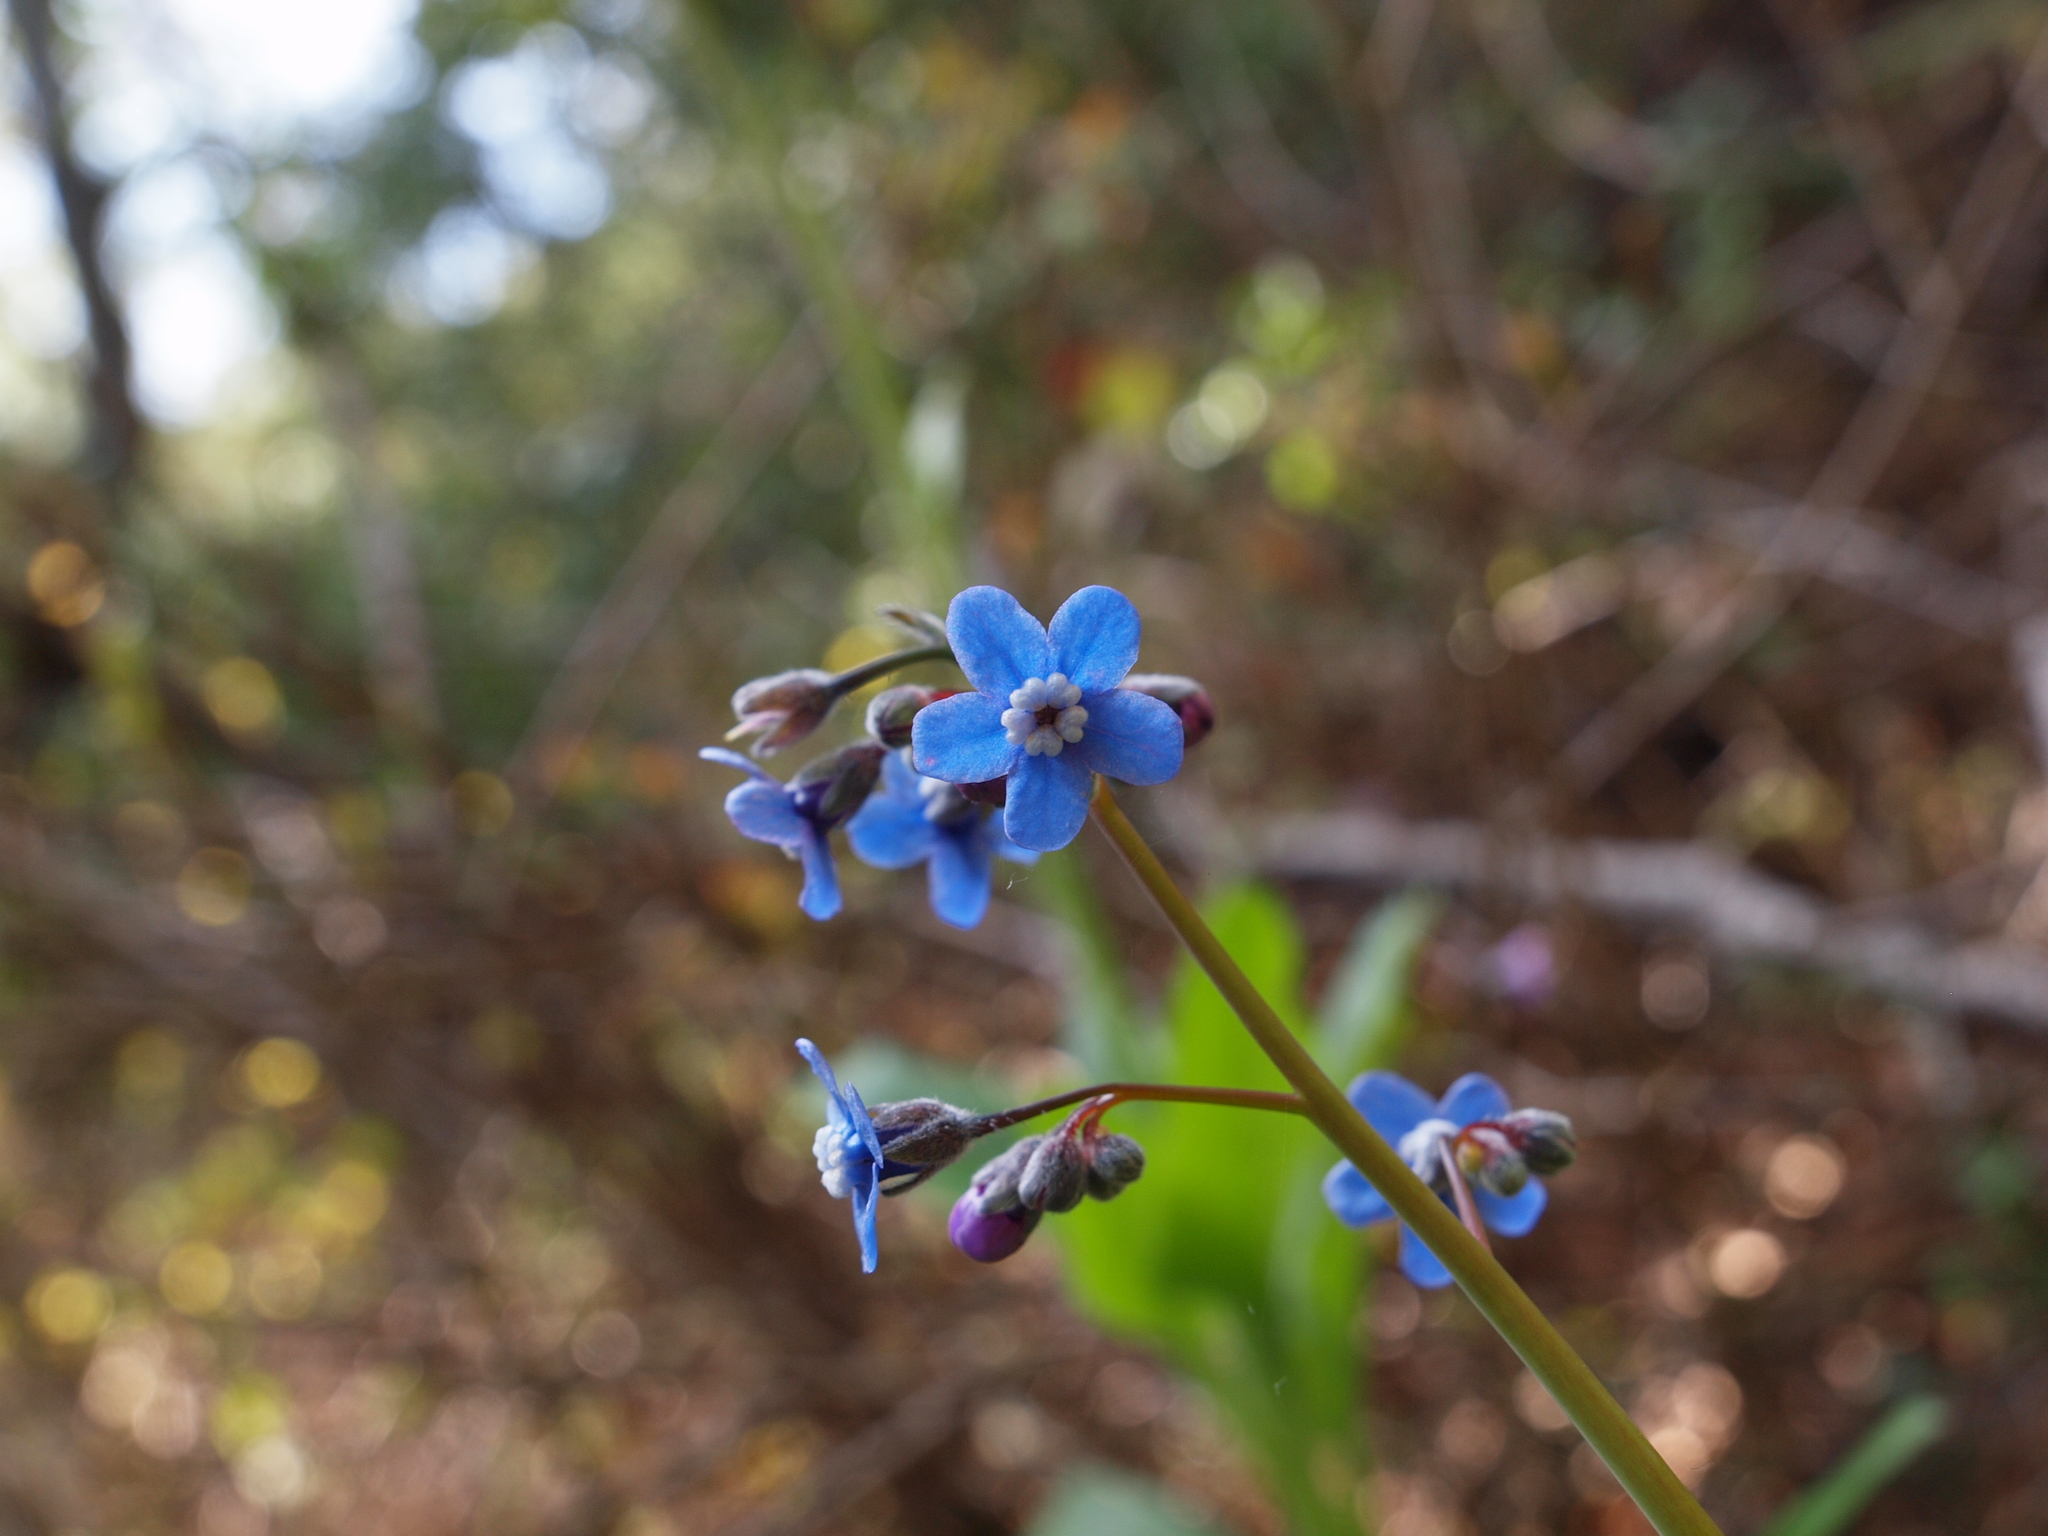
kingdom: Plantae
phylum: Tracheophyta
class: Magnoliopsida
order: Boraginales
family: Boraginaceae
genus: Adelinia
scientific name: Adelinia grande
